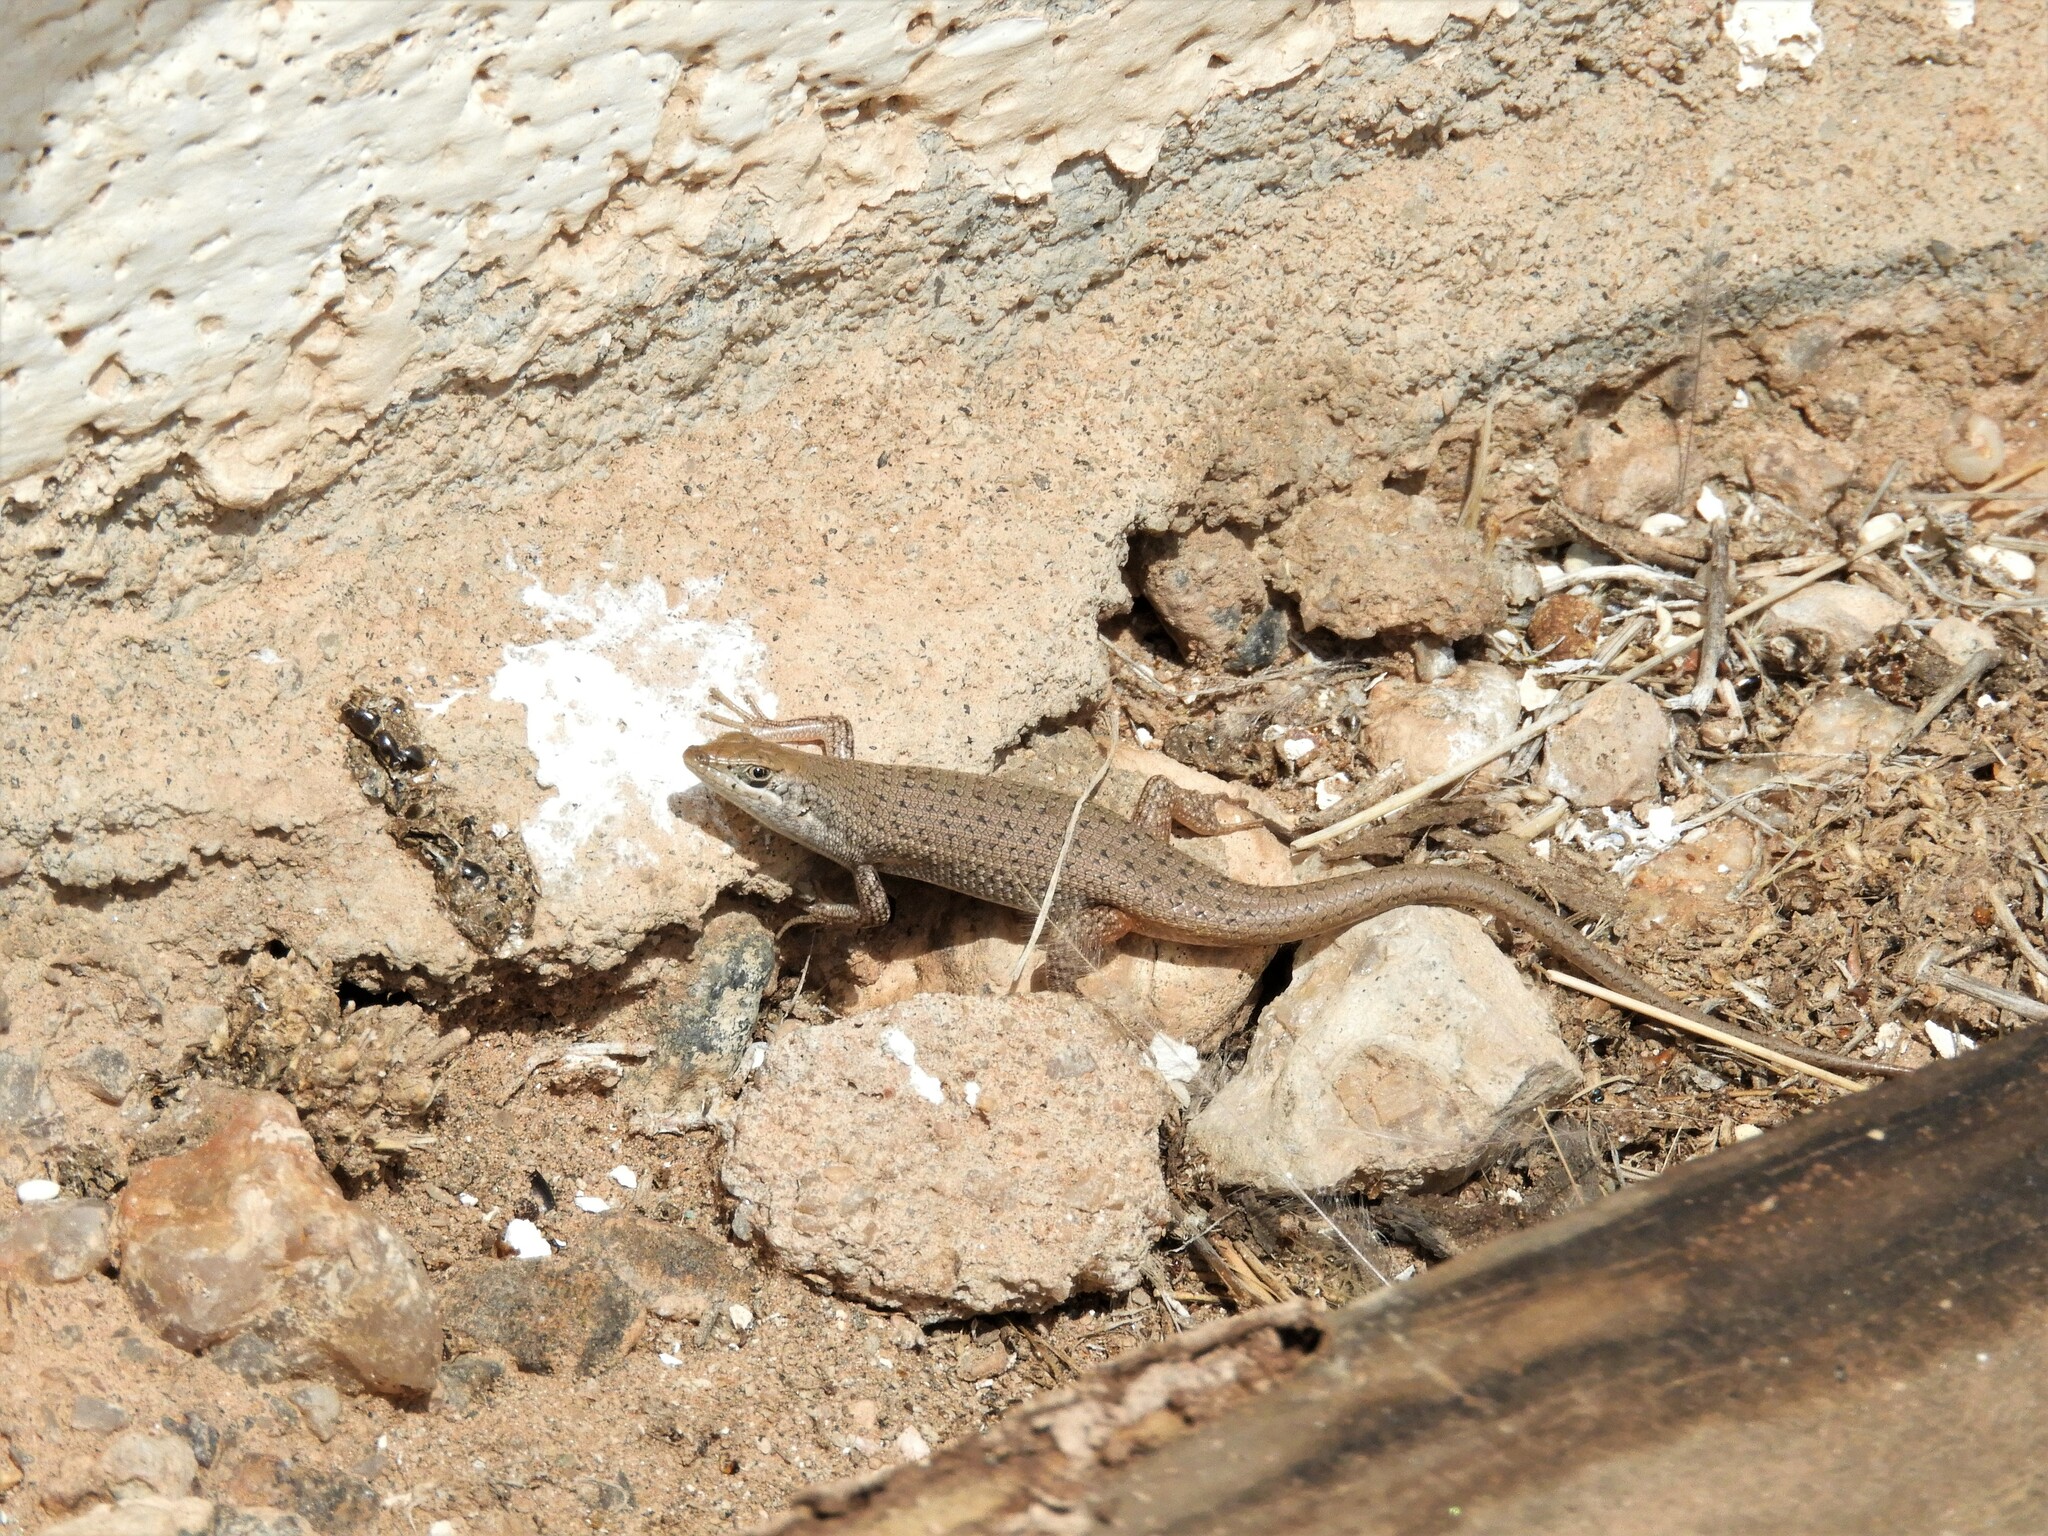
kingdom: Animalia
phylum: Chordata
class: Squamata
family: Scincidae
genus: Trachylepis
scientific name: Trachylepis variegata
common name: Variegated skink
